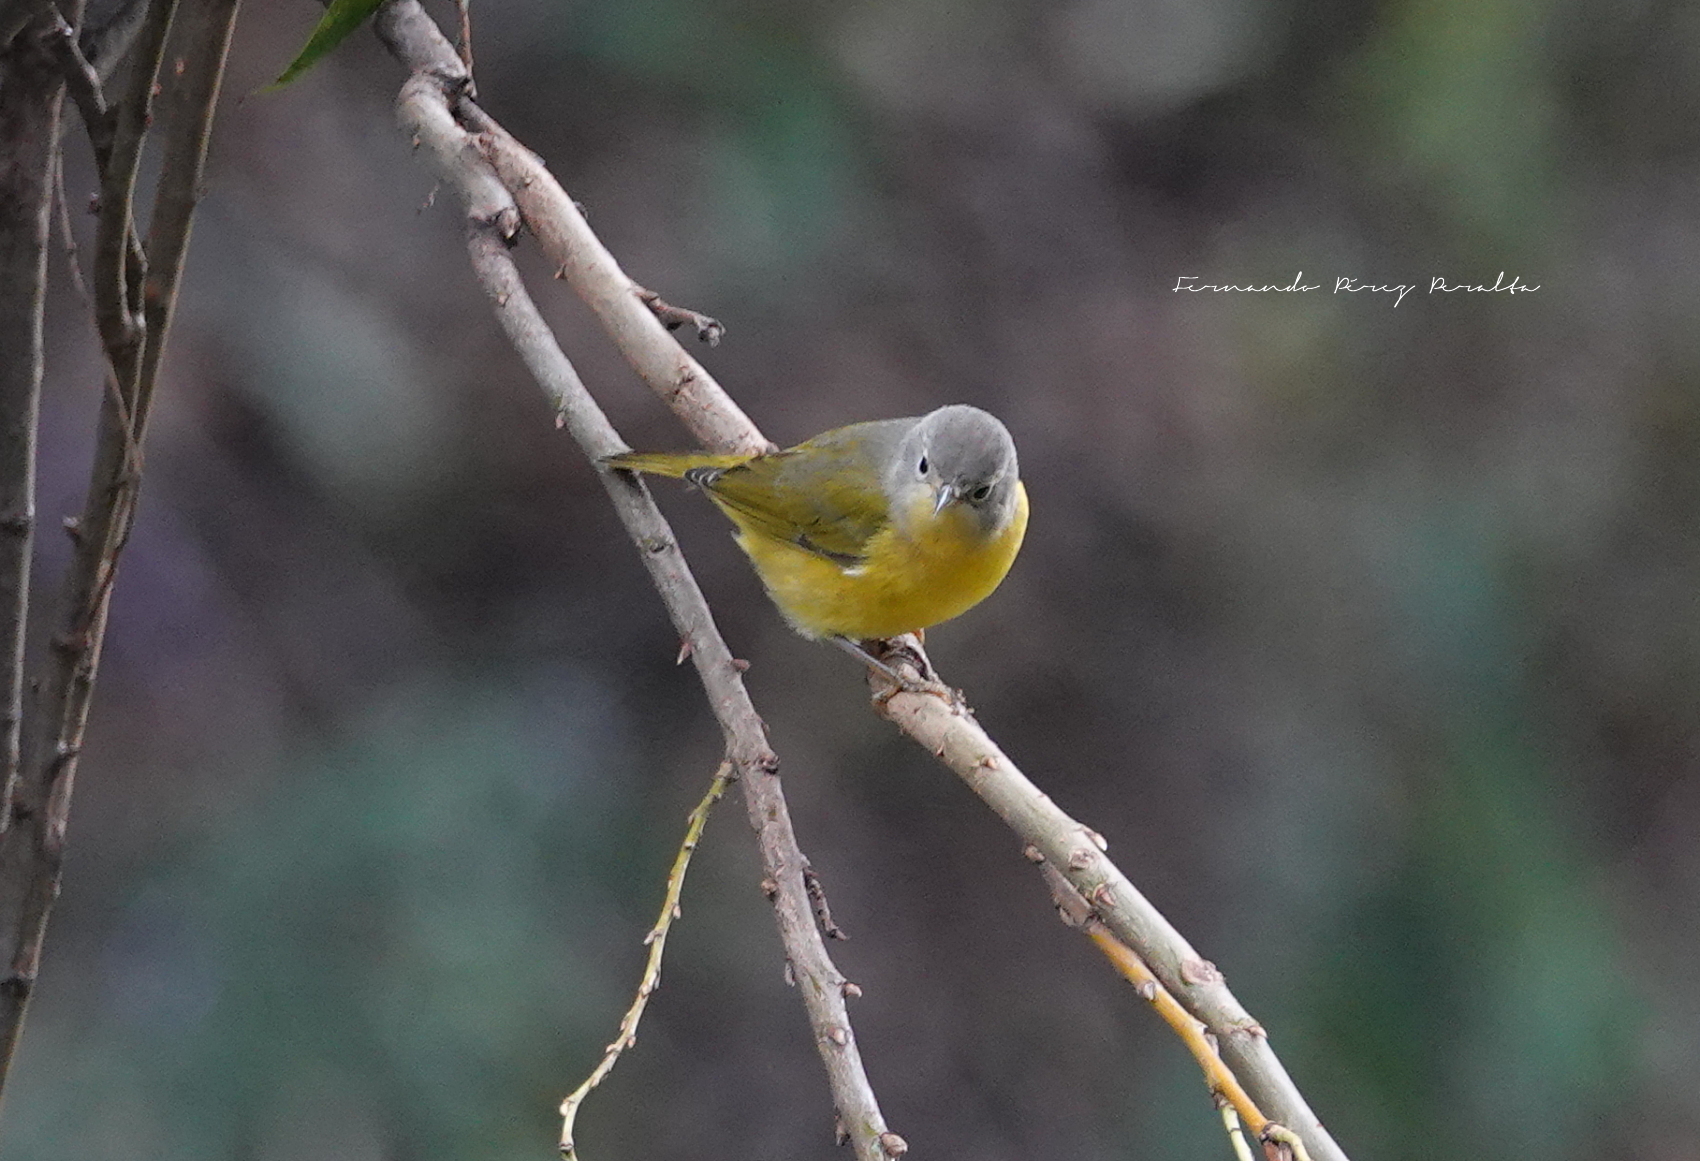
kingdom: Animalia
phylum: Chordata
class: Aves
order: Passeriformes
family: Parulidae
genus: Leiothlypis
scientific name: Leiothlypis ruficapilla
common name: Nashville warbler
